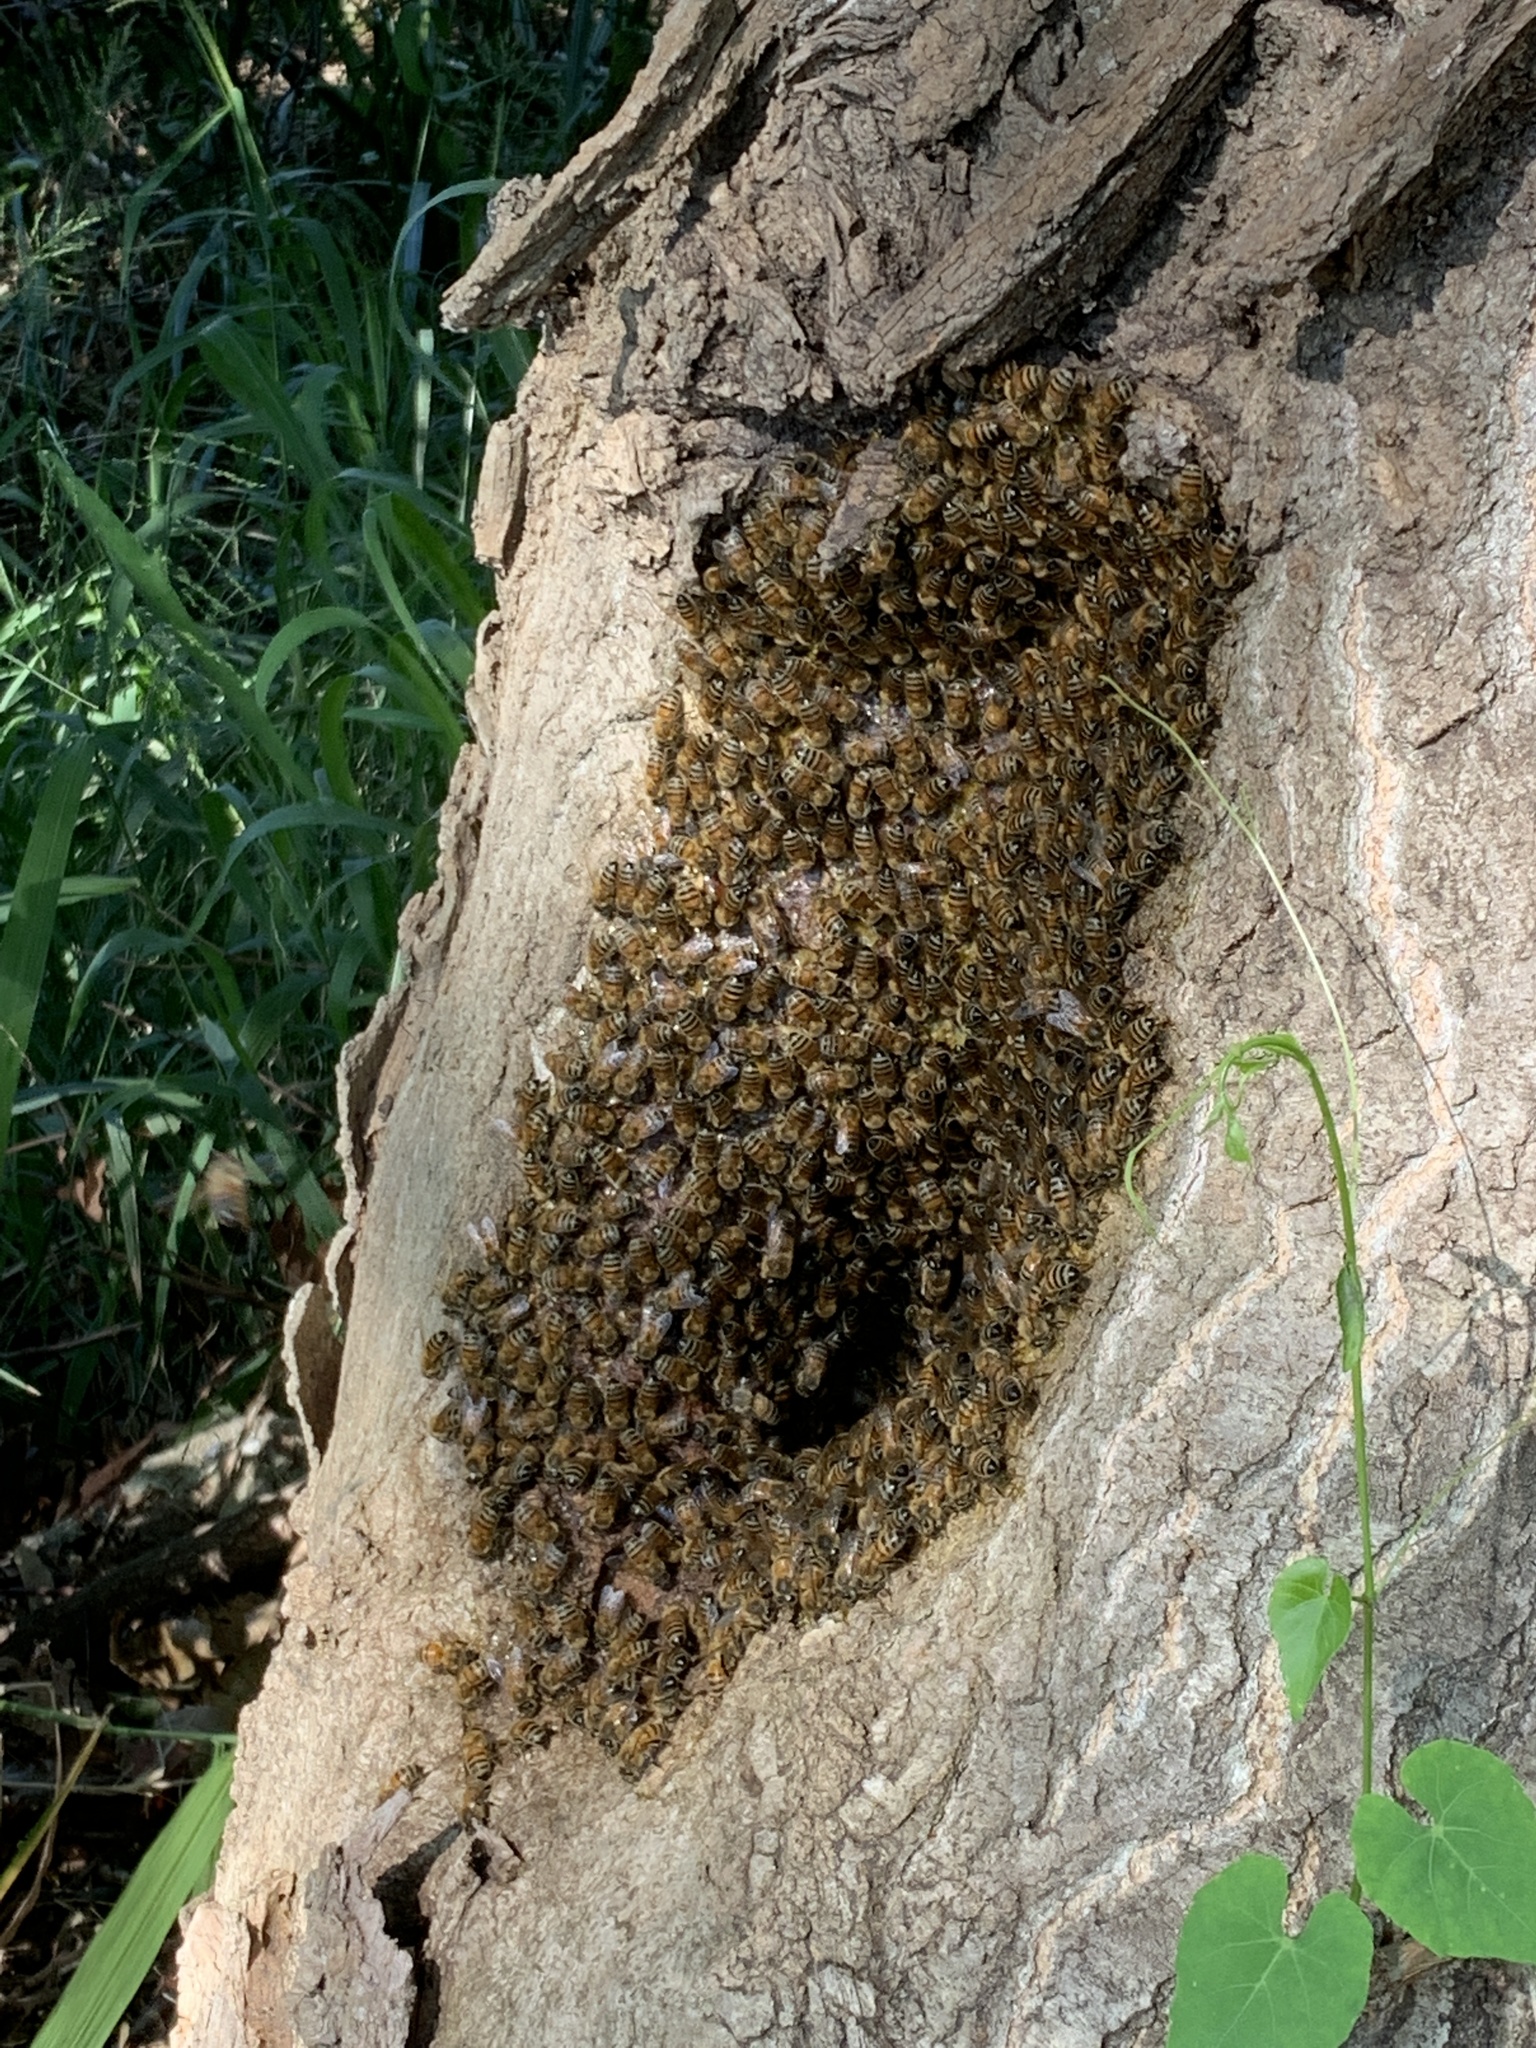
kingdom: Animalia
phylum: Arthropoda
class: Insecta
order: Hymenoptera
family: Apidae
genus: Apis
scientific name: Apis mellifera
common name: Honey bee
